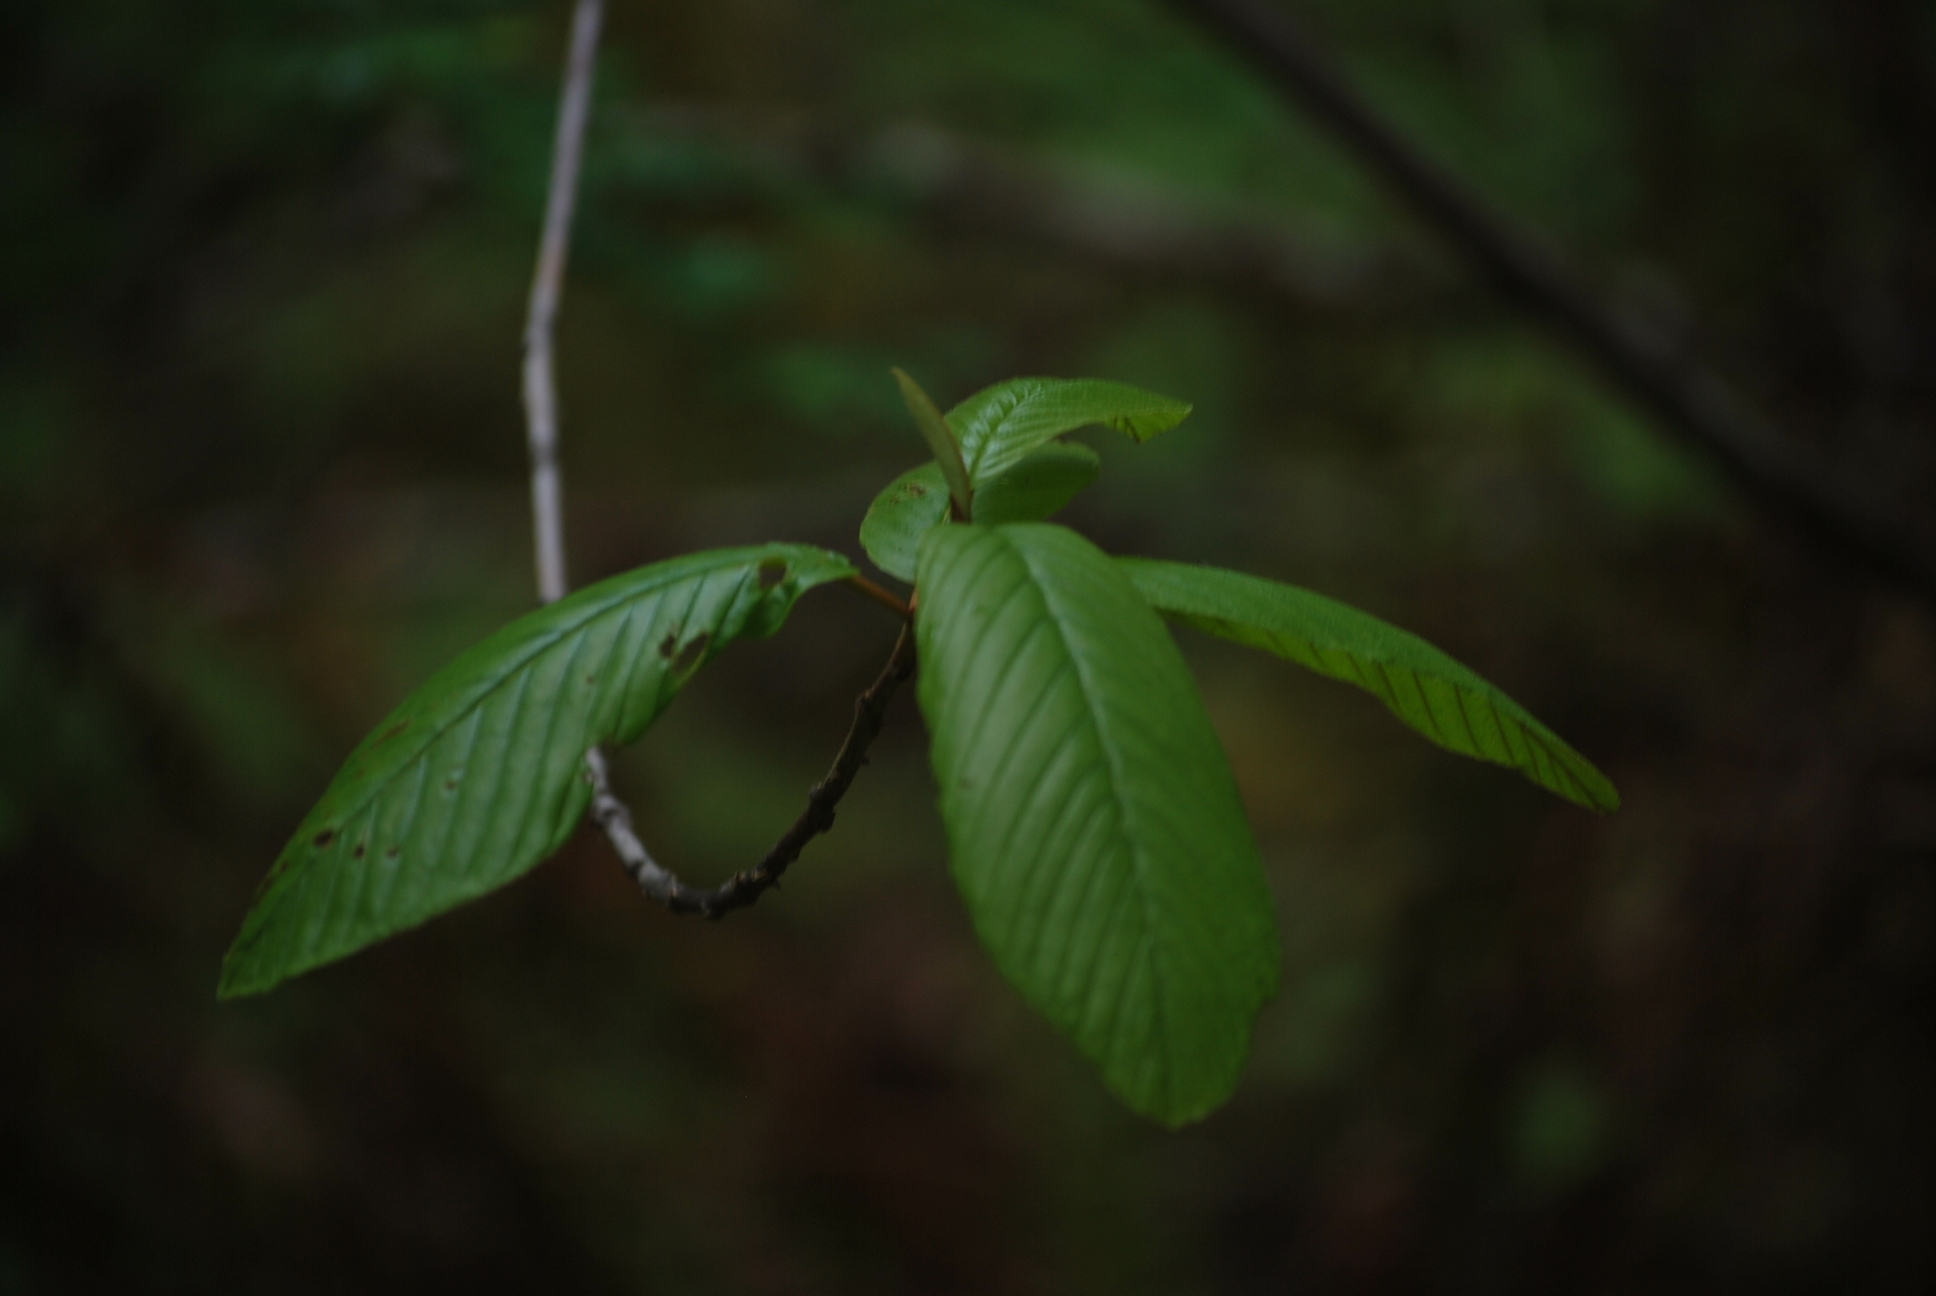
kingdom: Plantae
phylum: Tracheophyta
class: Magnoliopsida
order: Rosales
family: Rhamnaceae
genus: Frangula
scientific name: Frangula purshiana
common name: Cascara buckthorn
